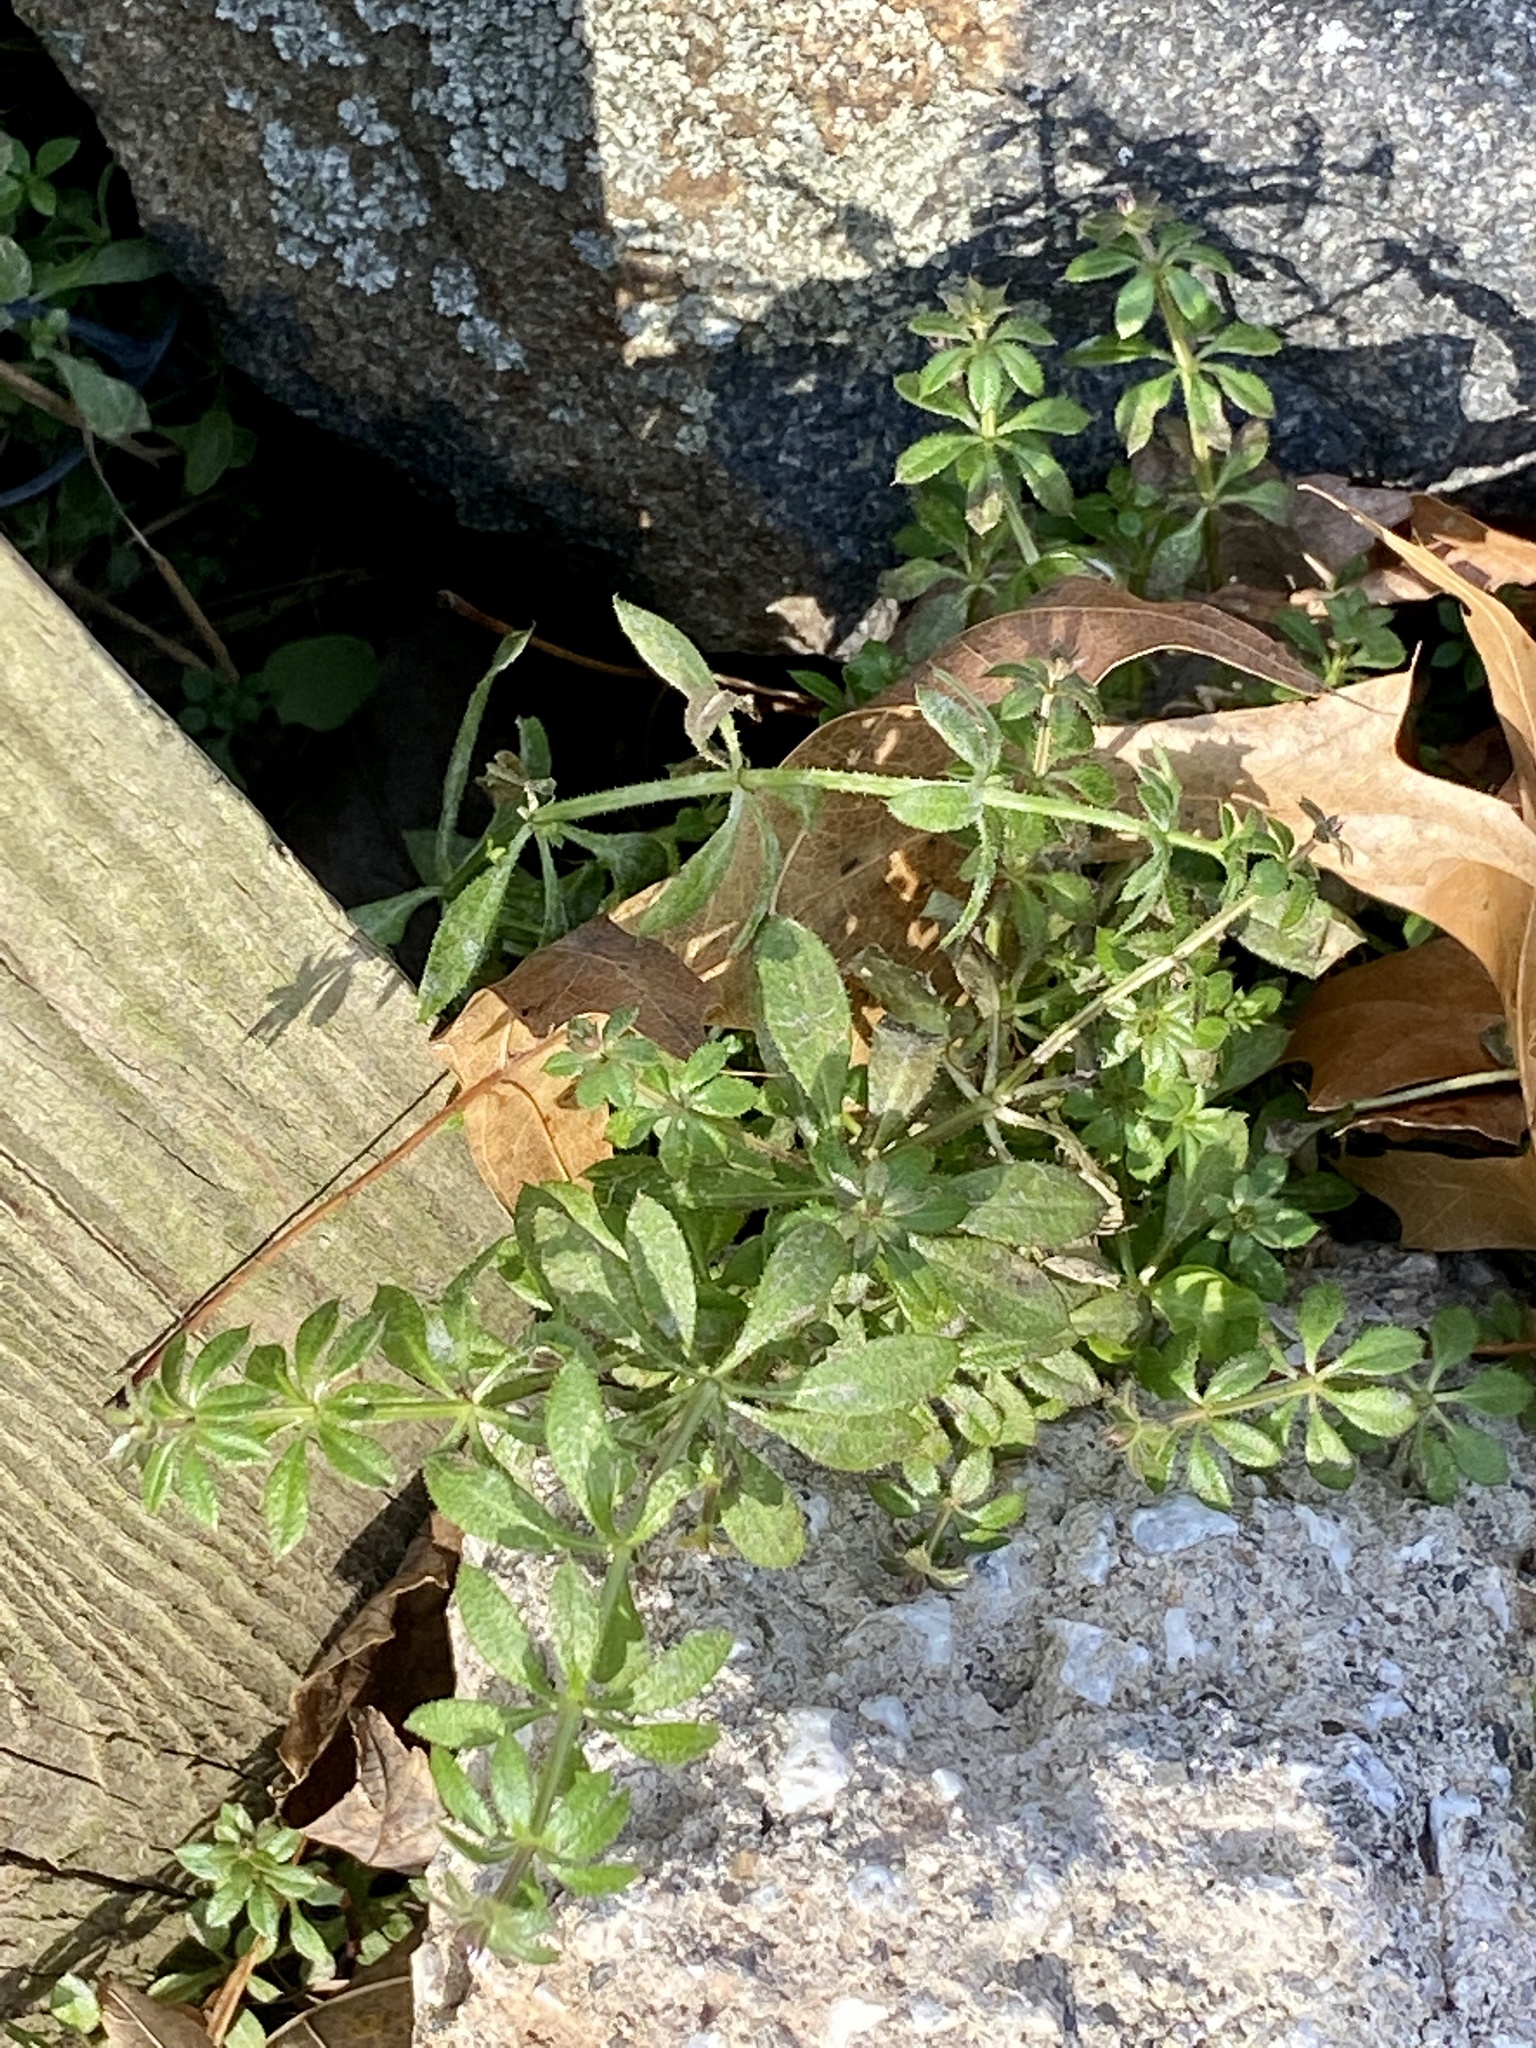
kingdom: Plantae
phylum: Tracheophyta
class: Magnoliopsida
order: Gentianales
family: Rubiaceae
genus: Galium
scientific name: Galium aparine
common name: Cleavers
